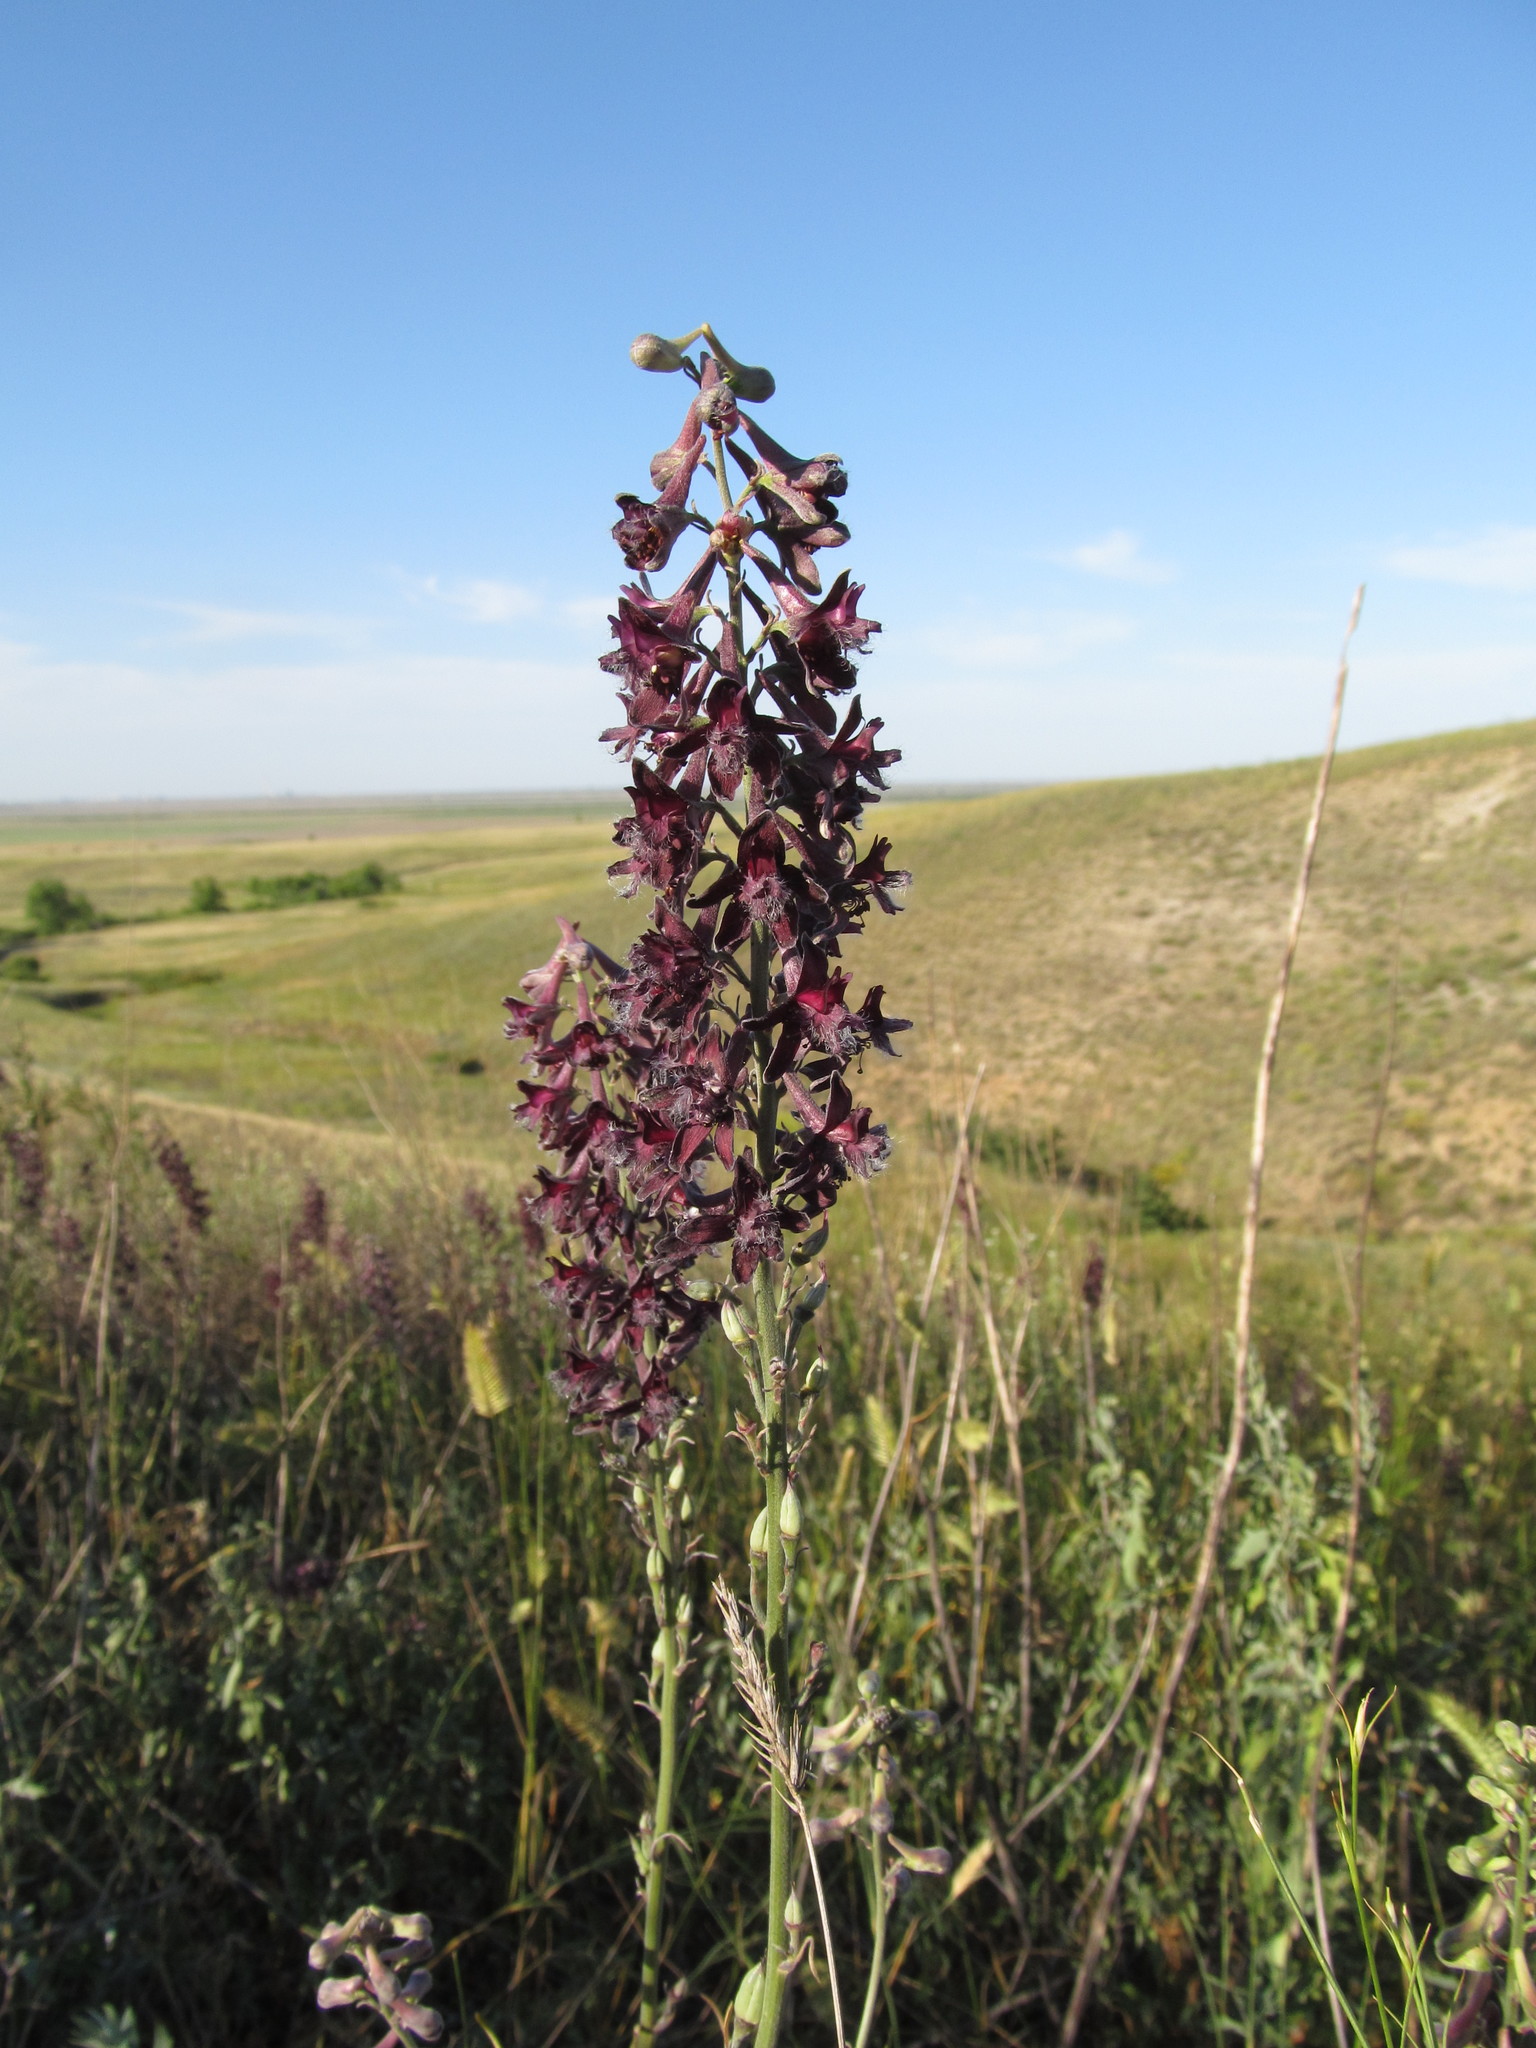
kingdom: Plantae
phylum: Tracheophyta
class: Magnoliopsida
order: Ranunculales
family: Ranunculaceae
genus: Delphinium
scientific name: Delphinium puniceum
